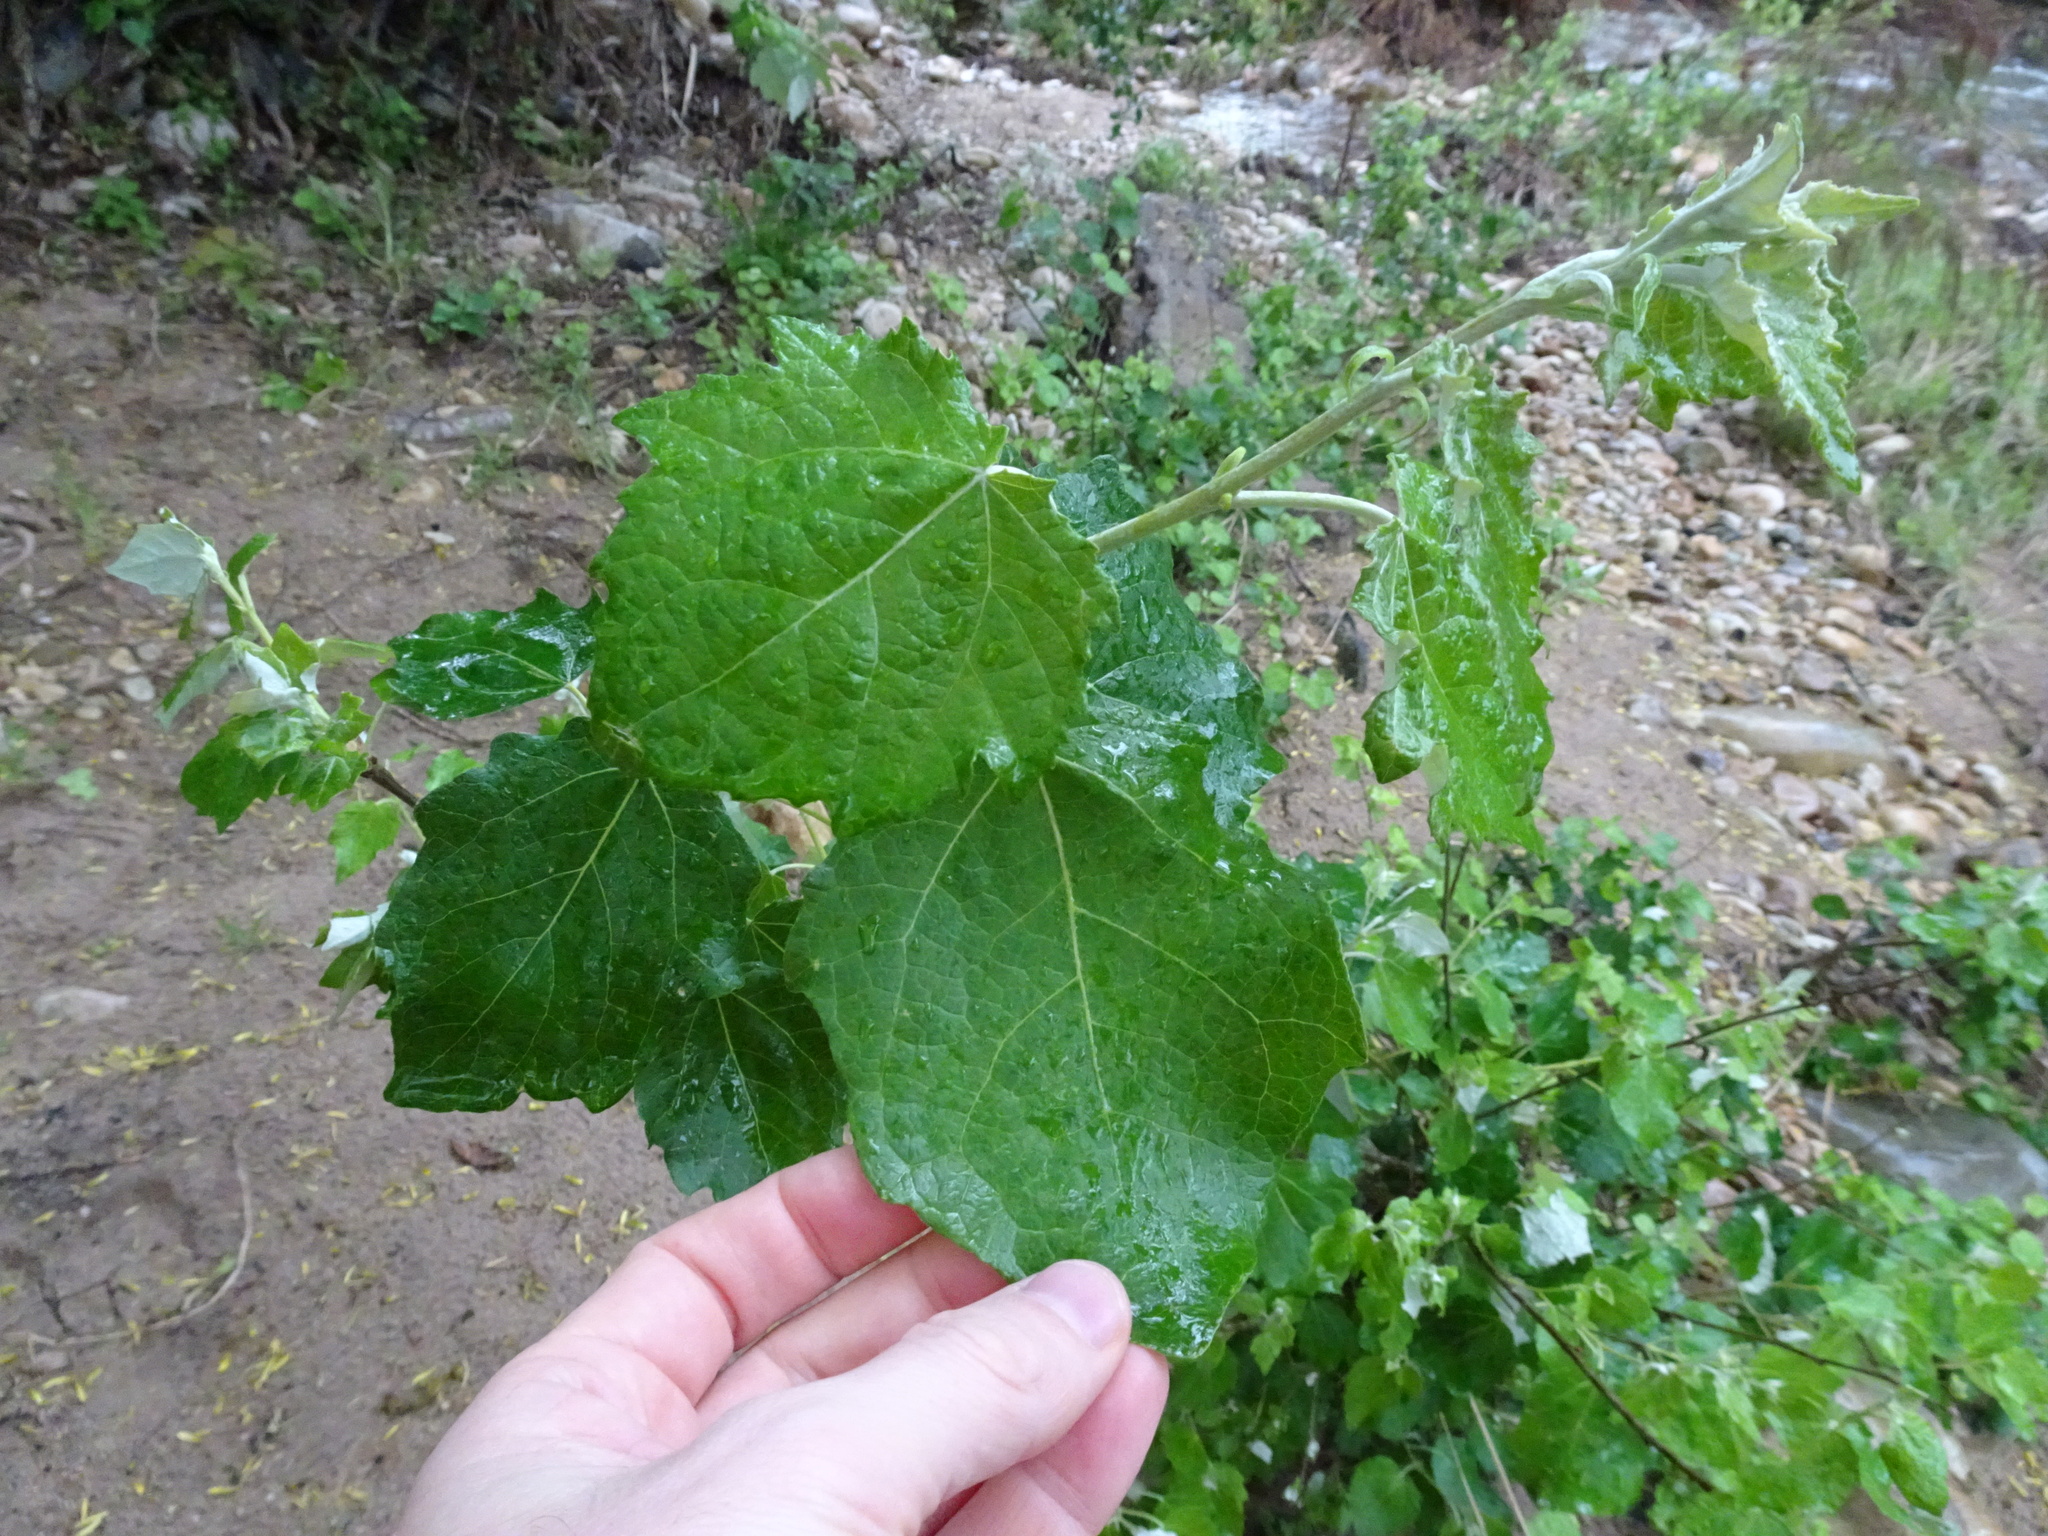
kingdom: Plantae
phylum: Tracheophyta
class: Magnoliopsida
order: Malpighiales
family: Salicaceae
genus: Populus
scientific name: Populus canescens
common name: Gray poplar
